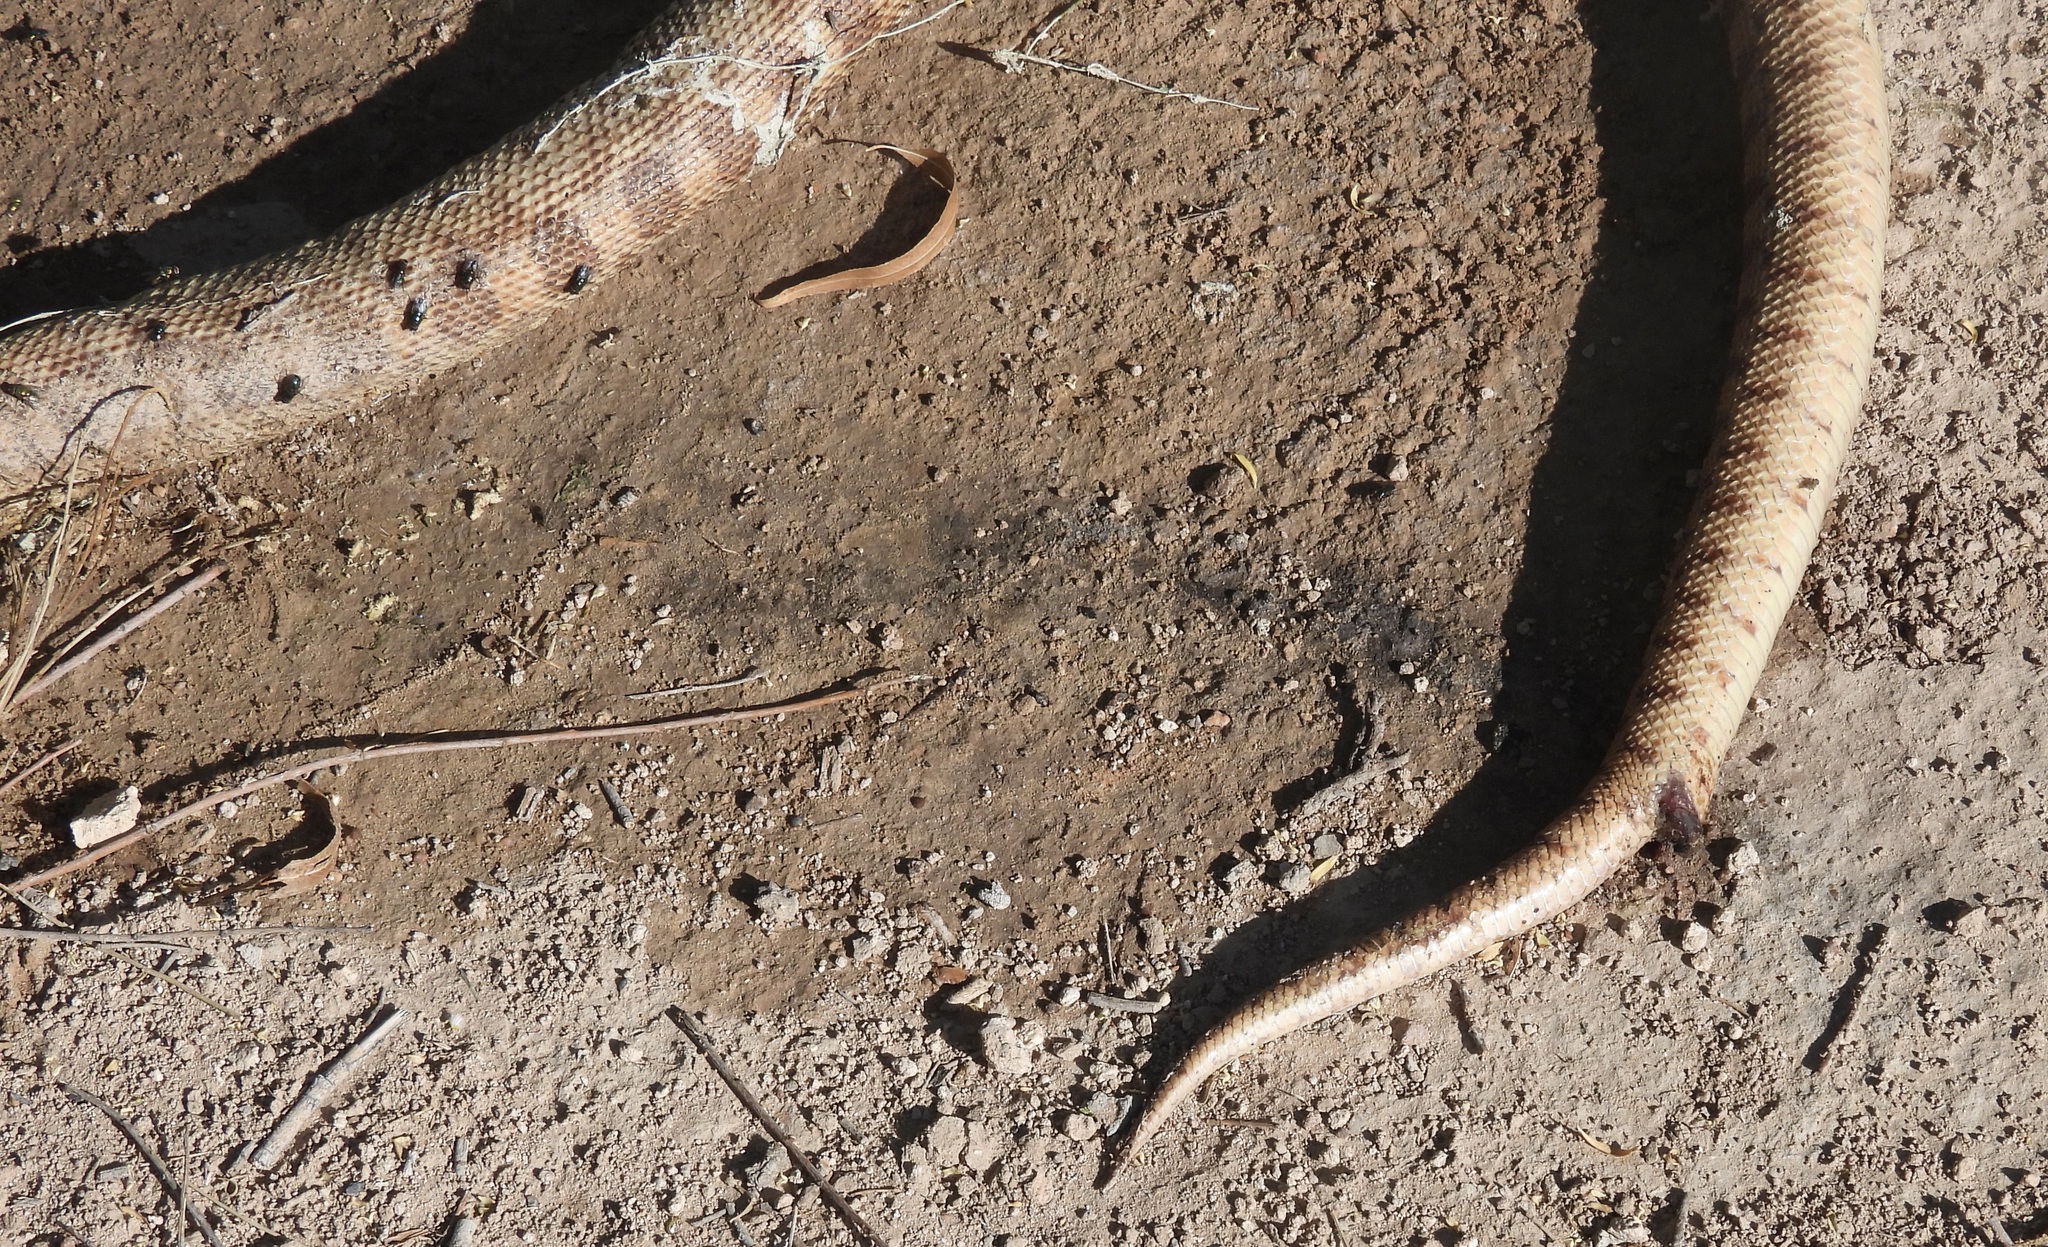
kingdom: Animalia
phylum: Chordata
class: Squamata
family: Colubridae
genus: Pituophis
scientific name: Pituophis catenifer
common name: Gopher snake
